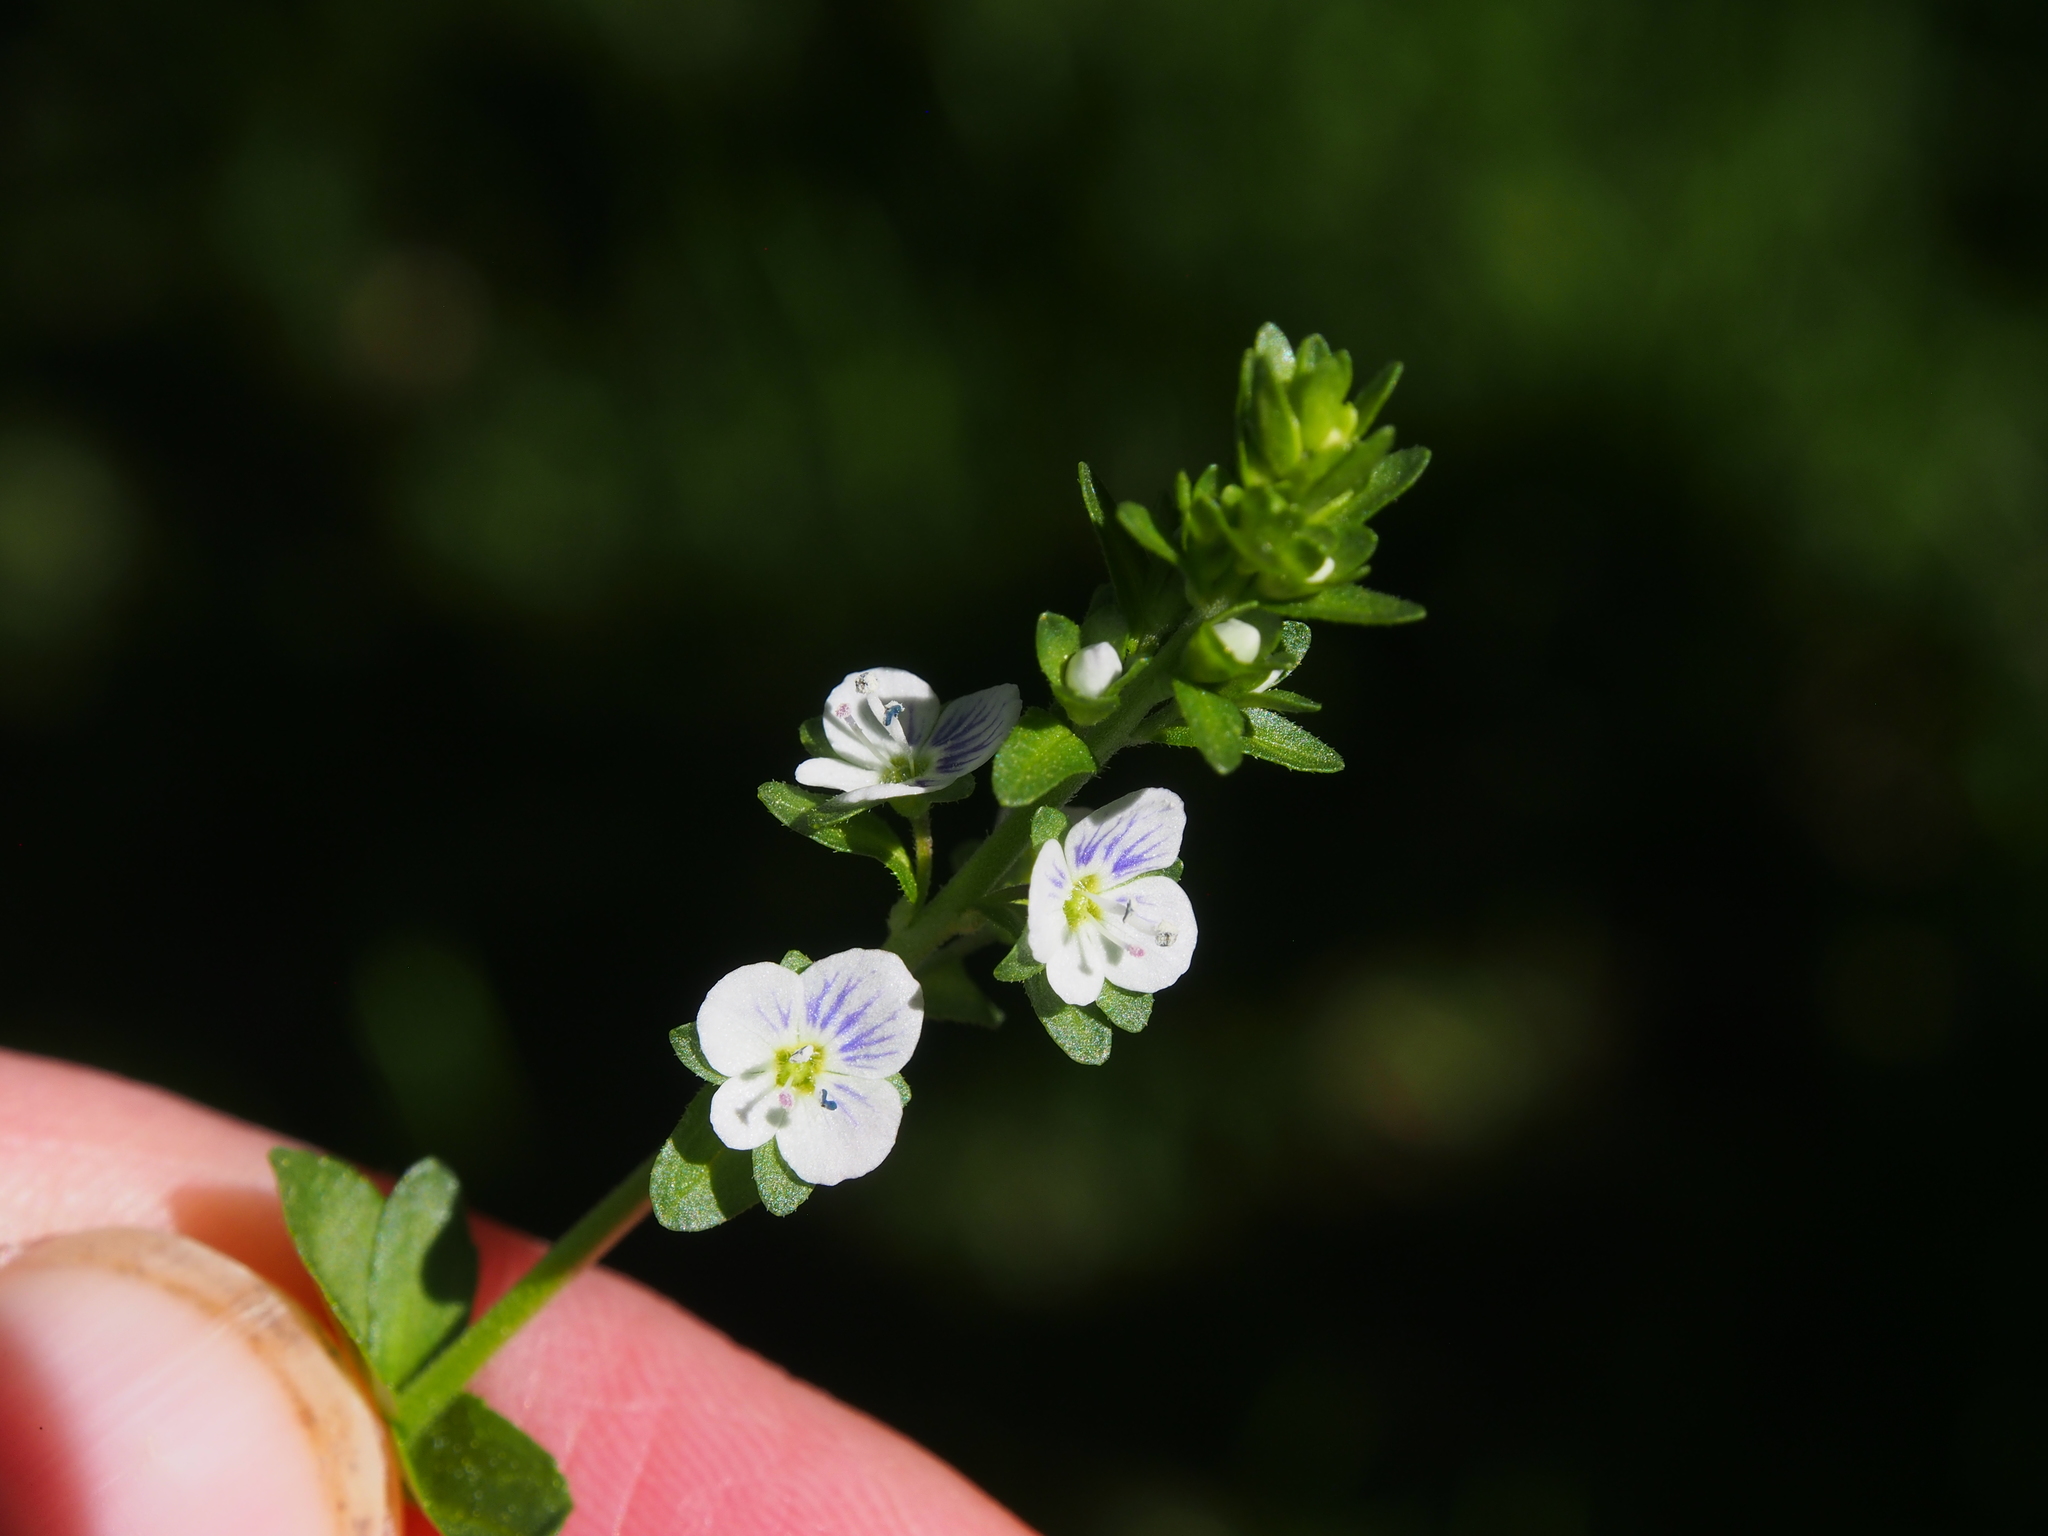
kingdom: Plantae
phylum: Tracheophyta
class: Magnoliopsida
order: Lamiales
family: Plantaginaceae
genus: Veronica
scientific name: Veronica serpyllifolia
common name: Thyme-leaved speedwell
